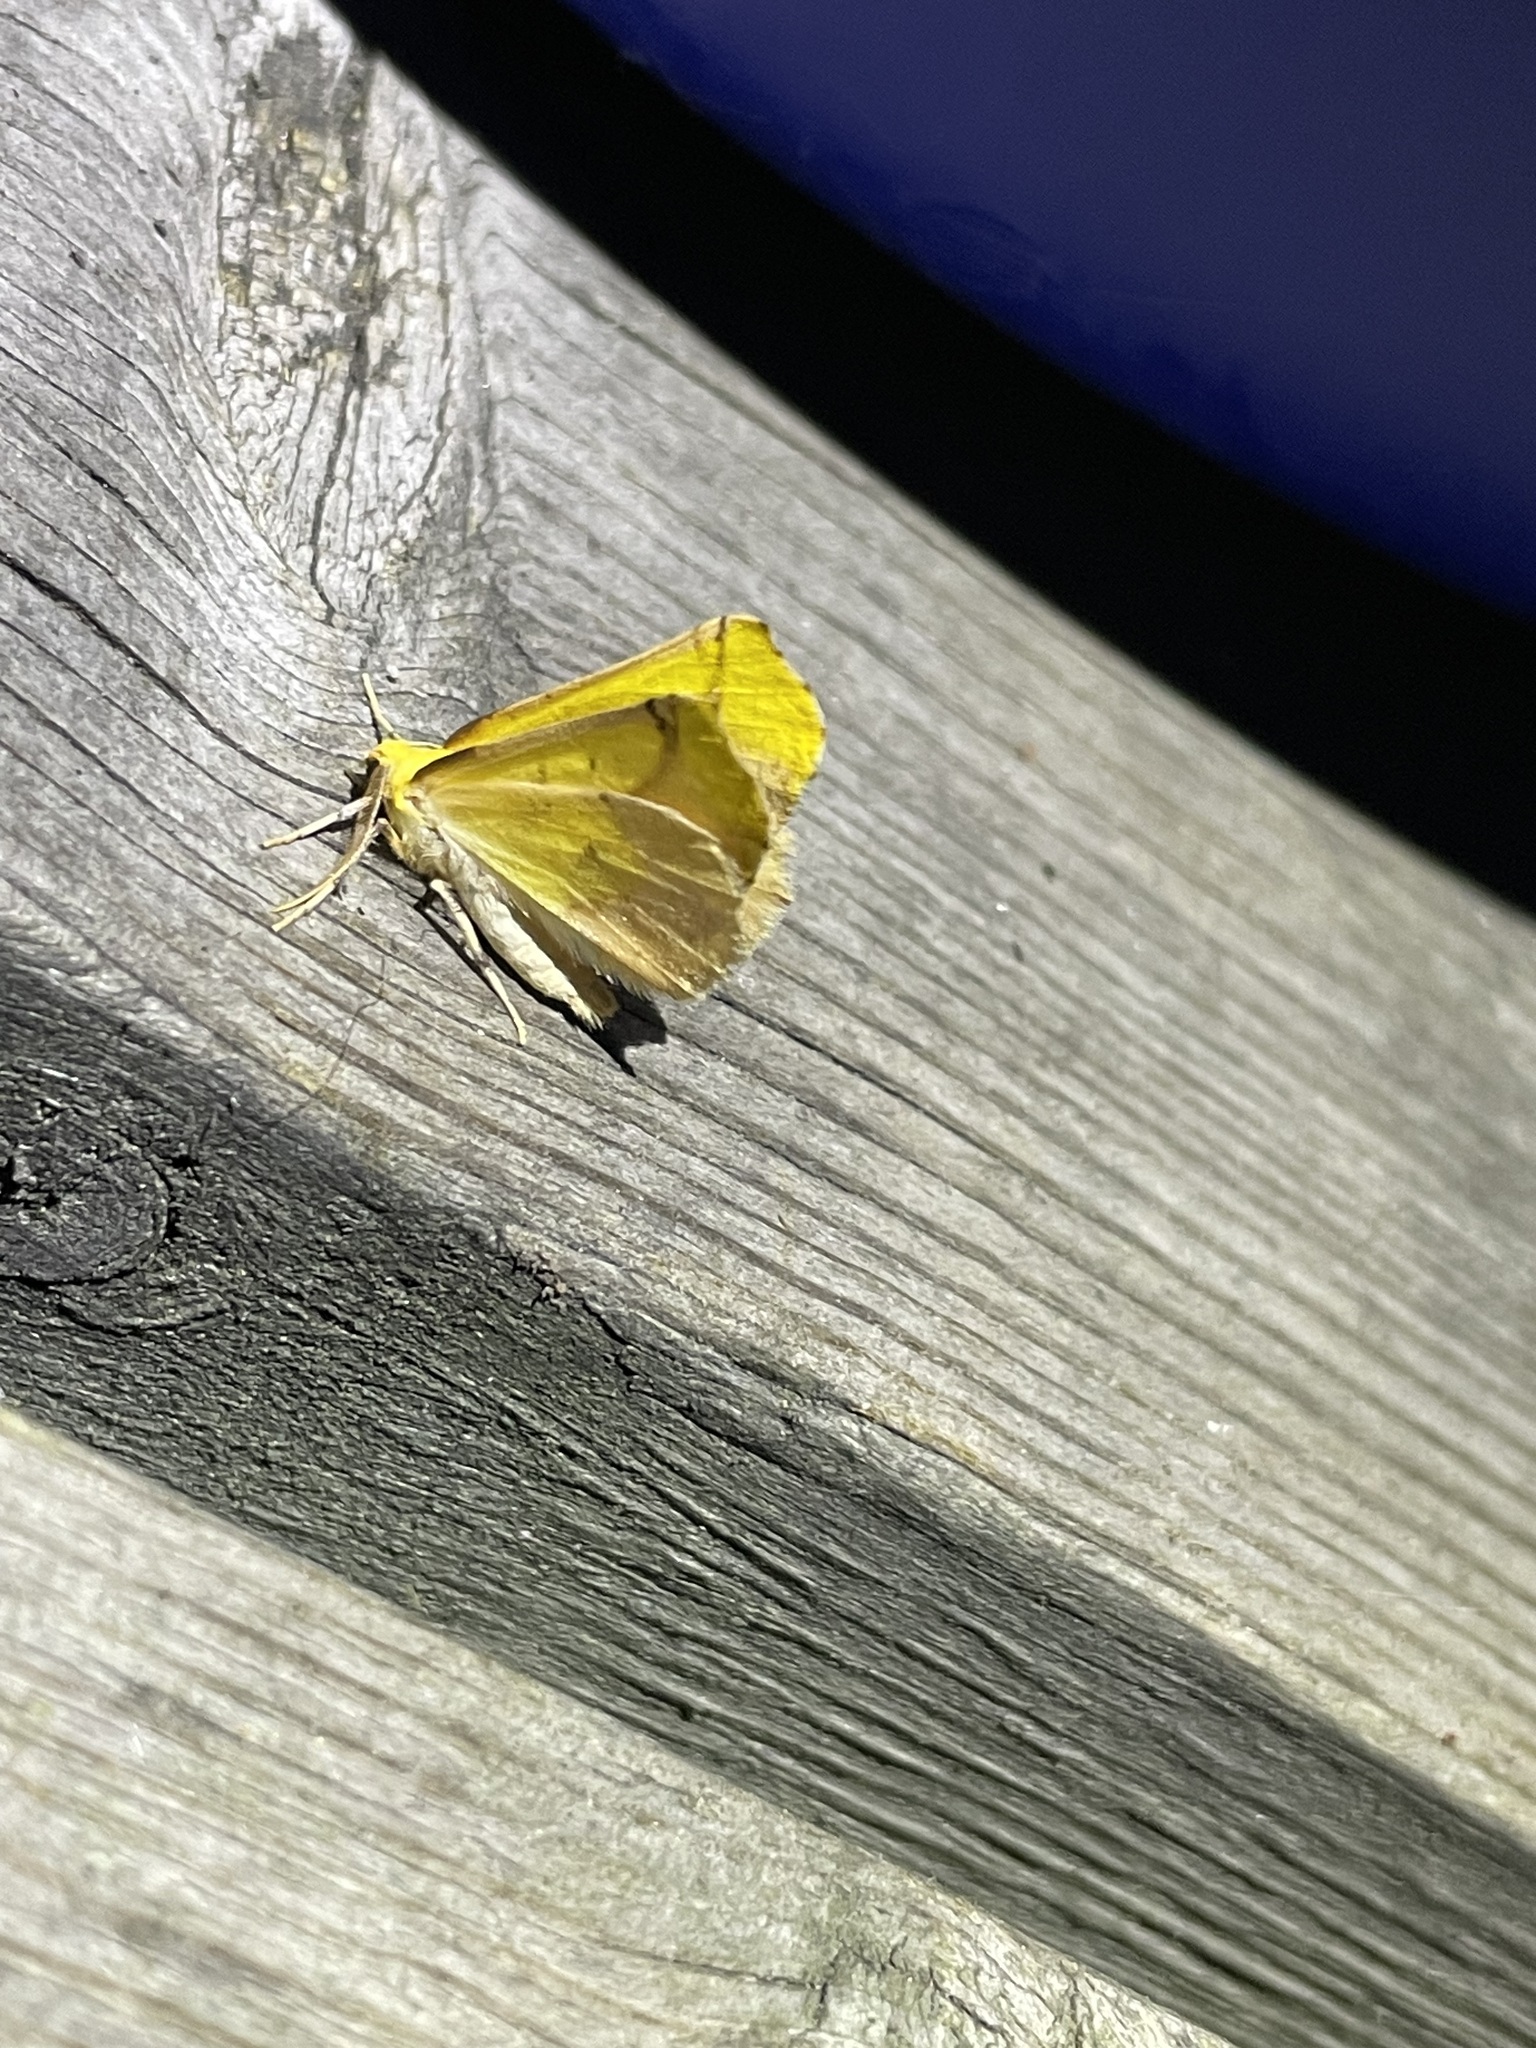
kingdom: Animalia
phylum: Arthropoda
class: Insecta
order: Lepidoptera
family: Geometridae
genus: Sicya
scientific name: Sicya macularia
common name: Sharp-lined yellow
